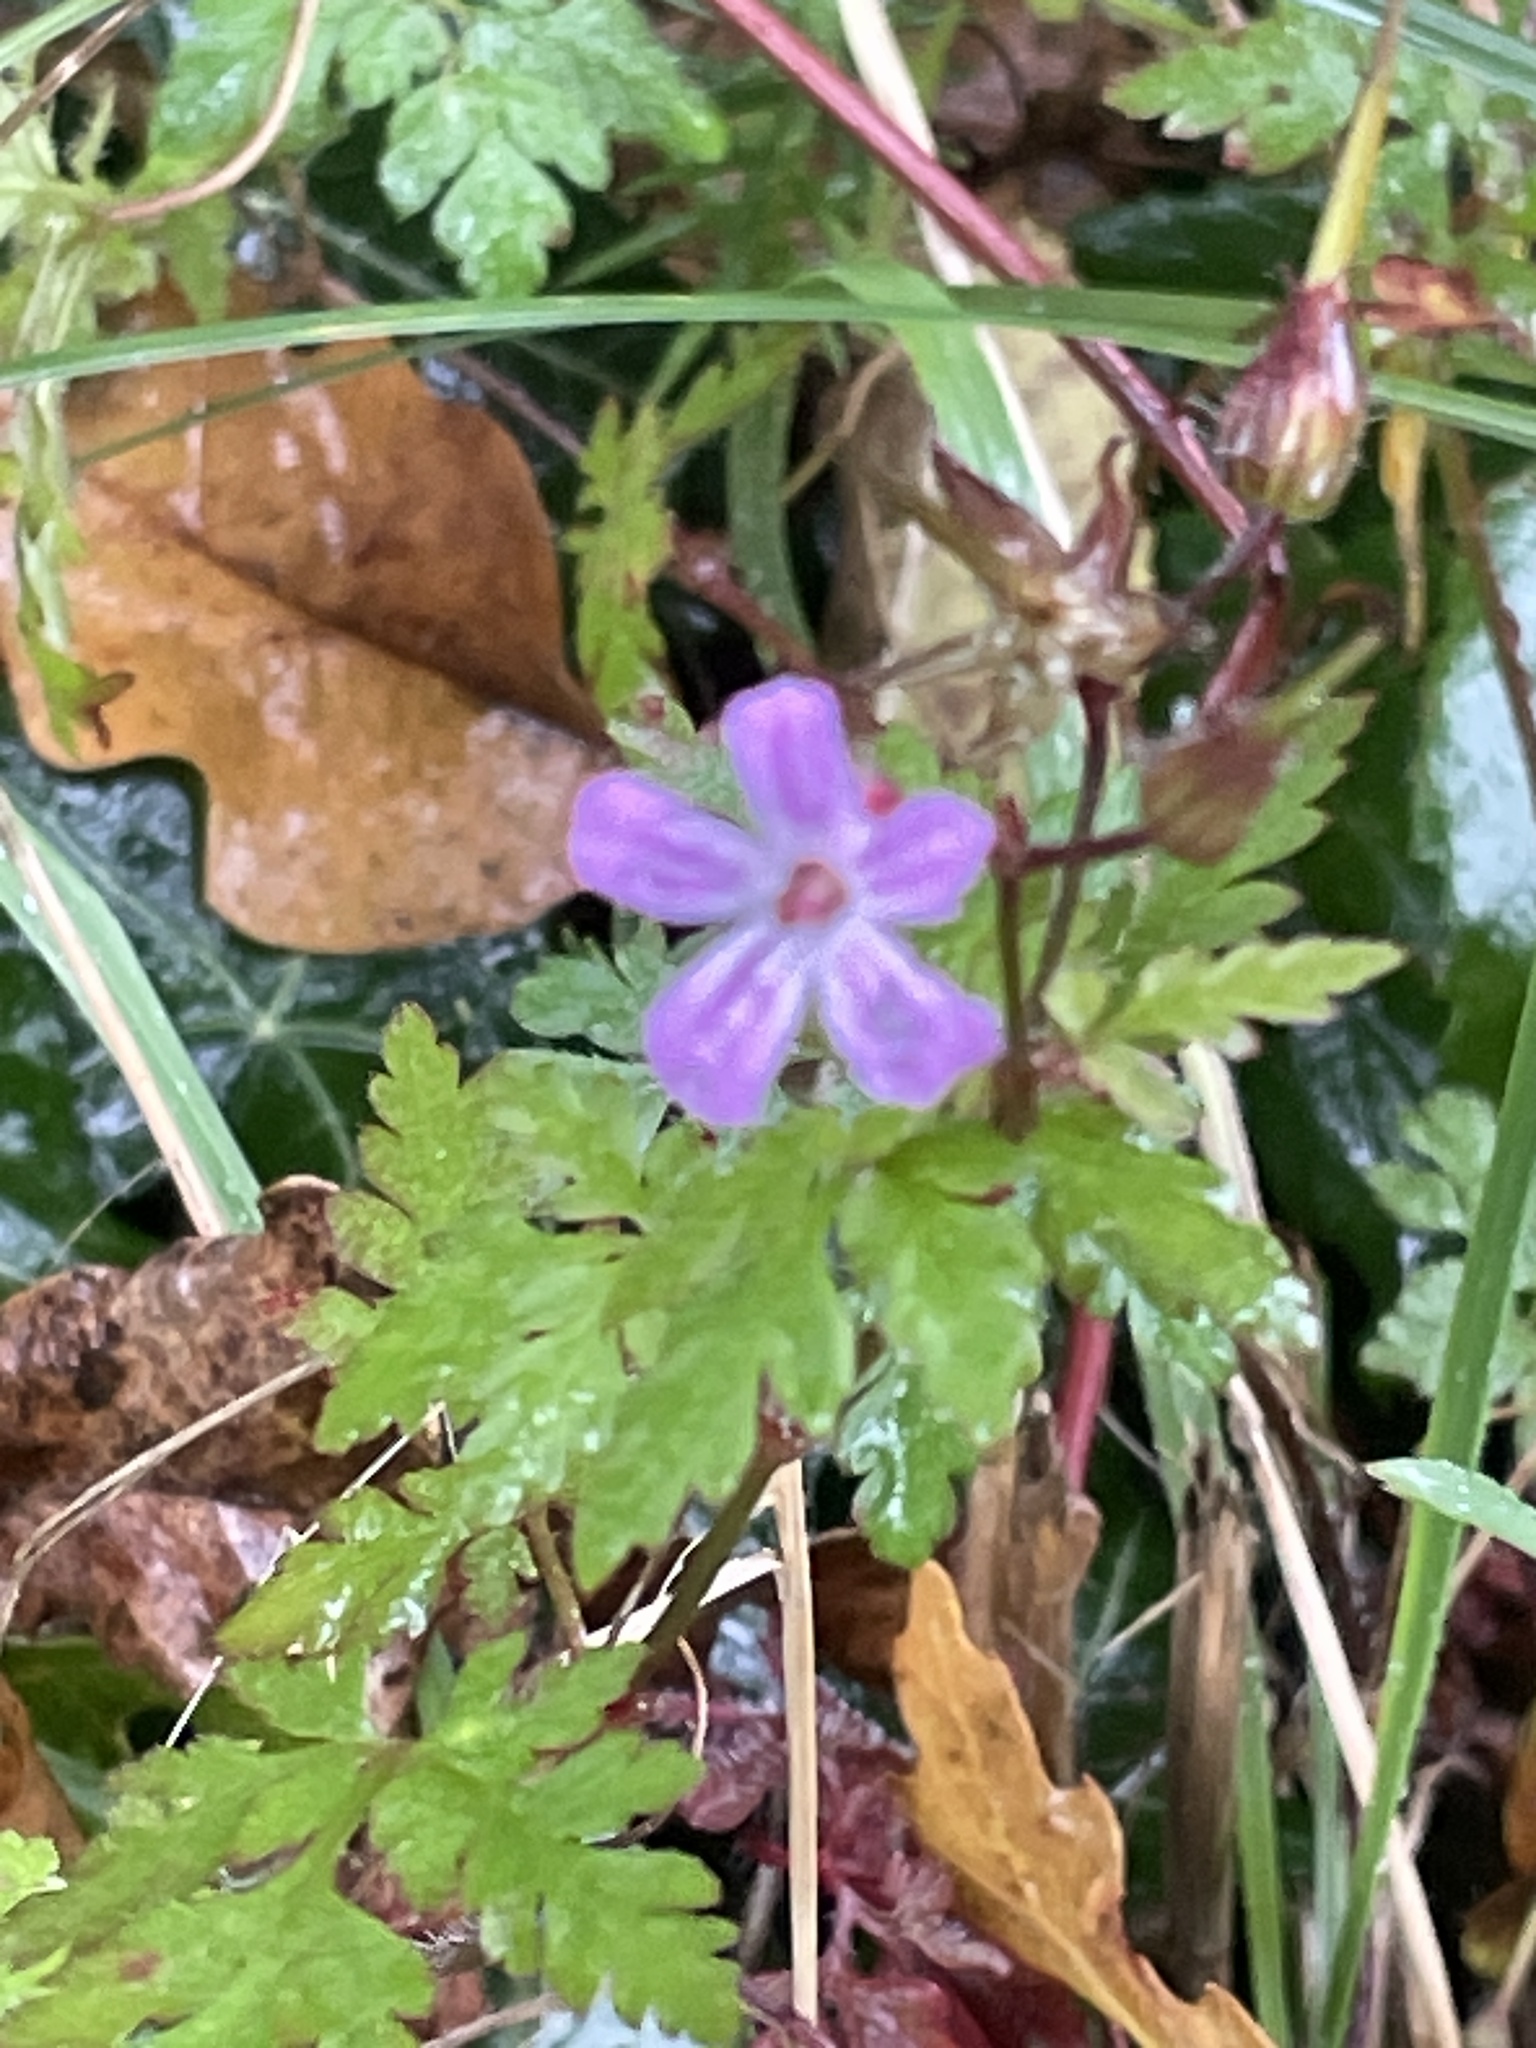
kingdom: Plantae
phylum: Tracheophyta
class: Magnoliopsida
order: Geraniales
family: Geraniaceae
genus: Geranium
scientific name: Geranium robertianum
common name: Herb-robert
